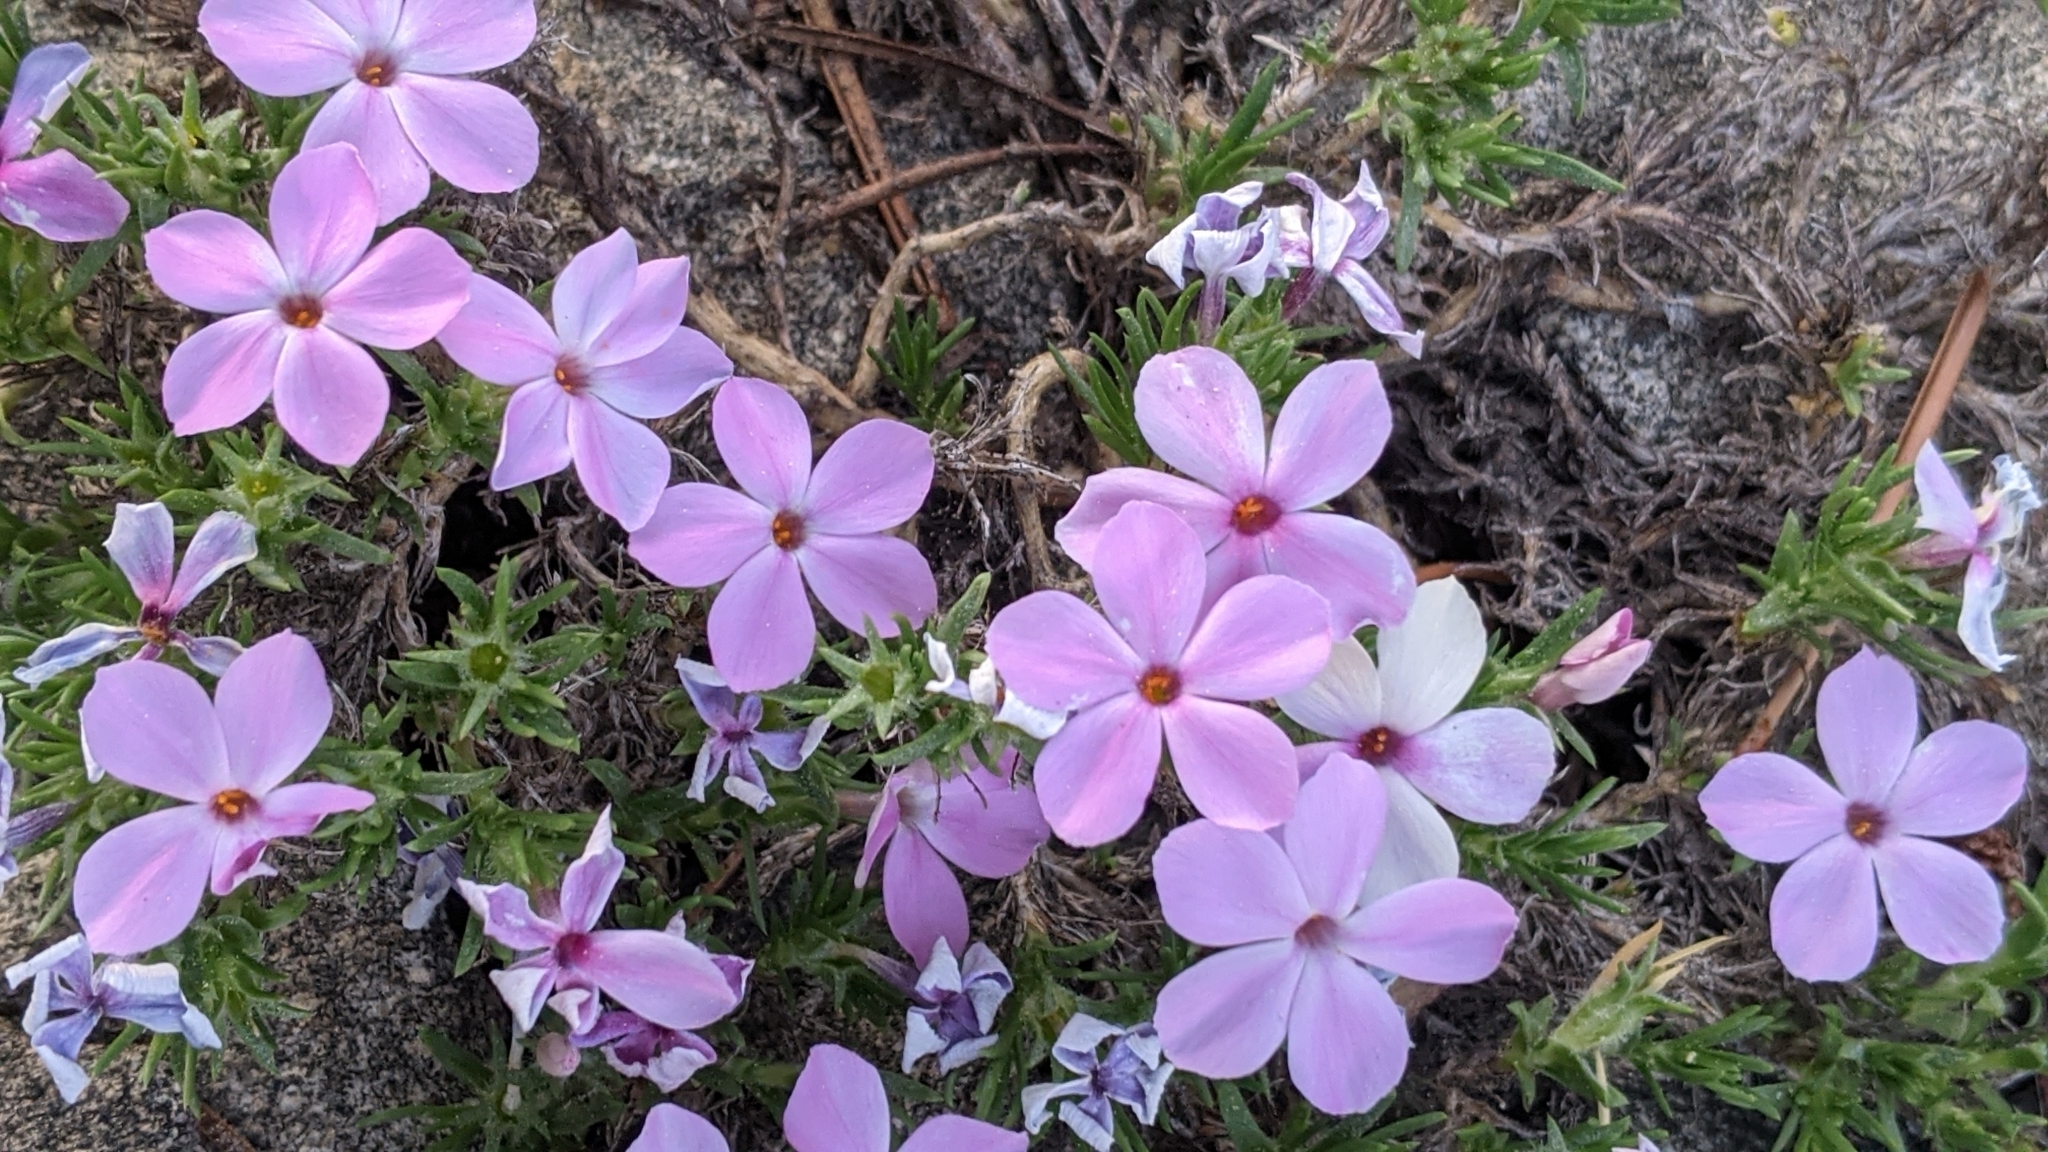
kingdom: Plantae
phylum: Tracheophyta
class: Magnoliopsida
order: Ericales
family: Polemoniaceae
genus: Phlox
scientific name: Phlox diffusa
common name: Mat phlox
